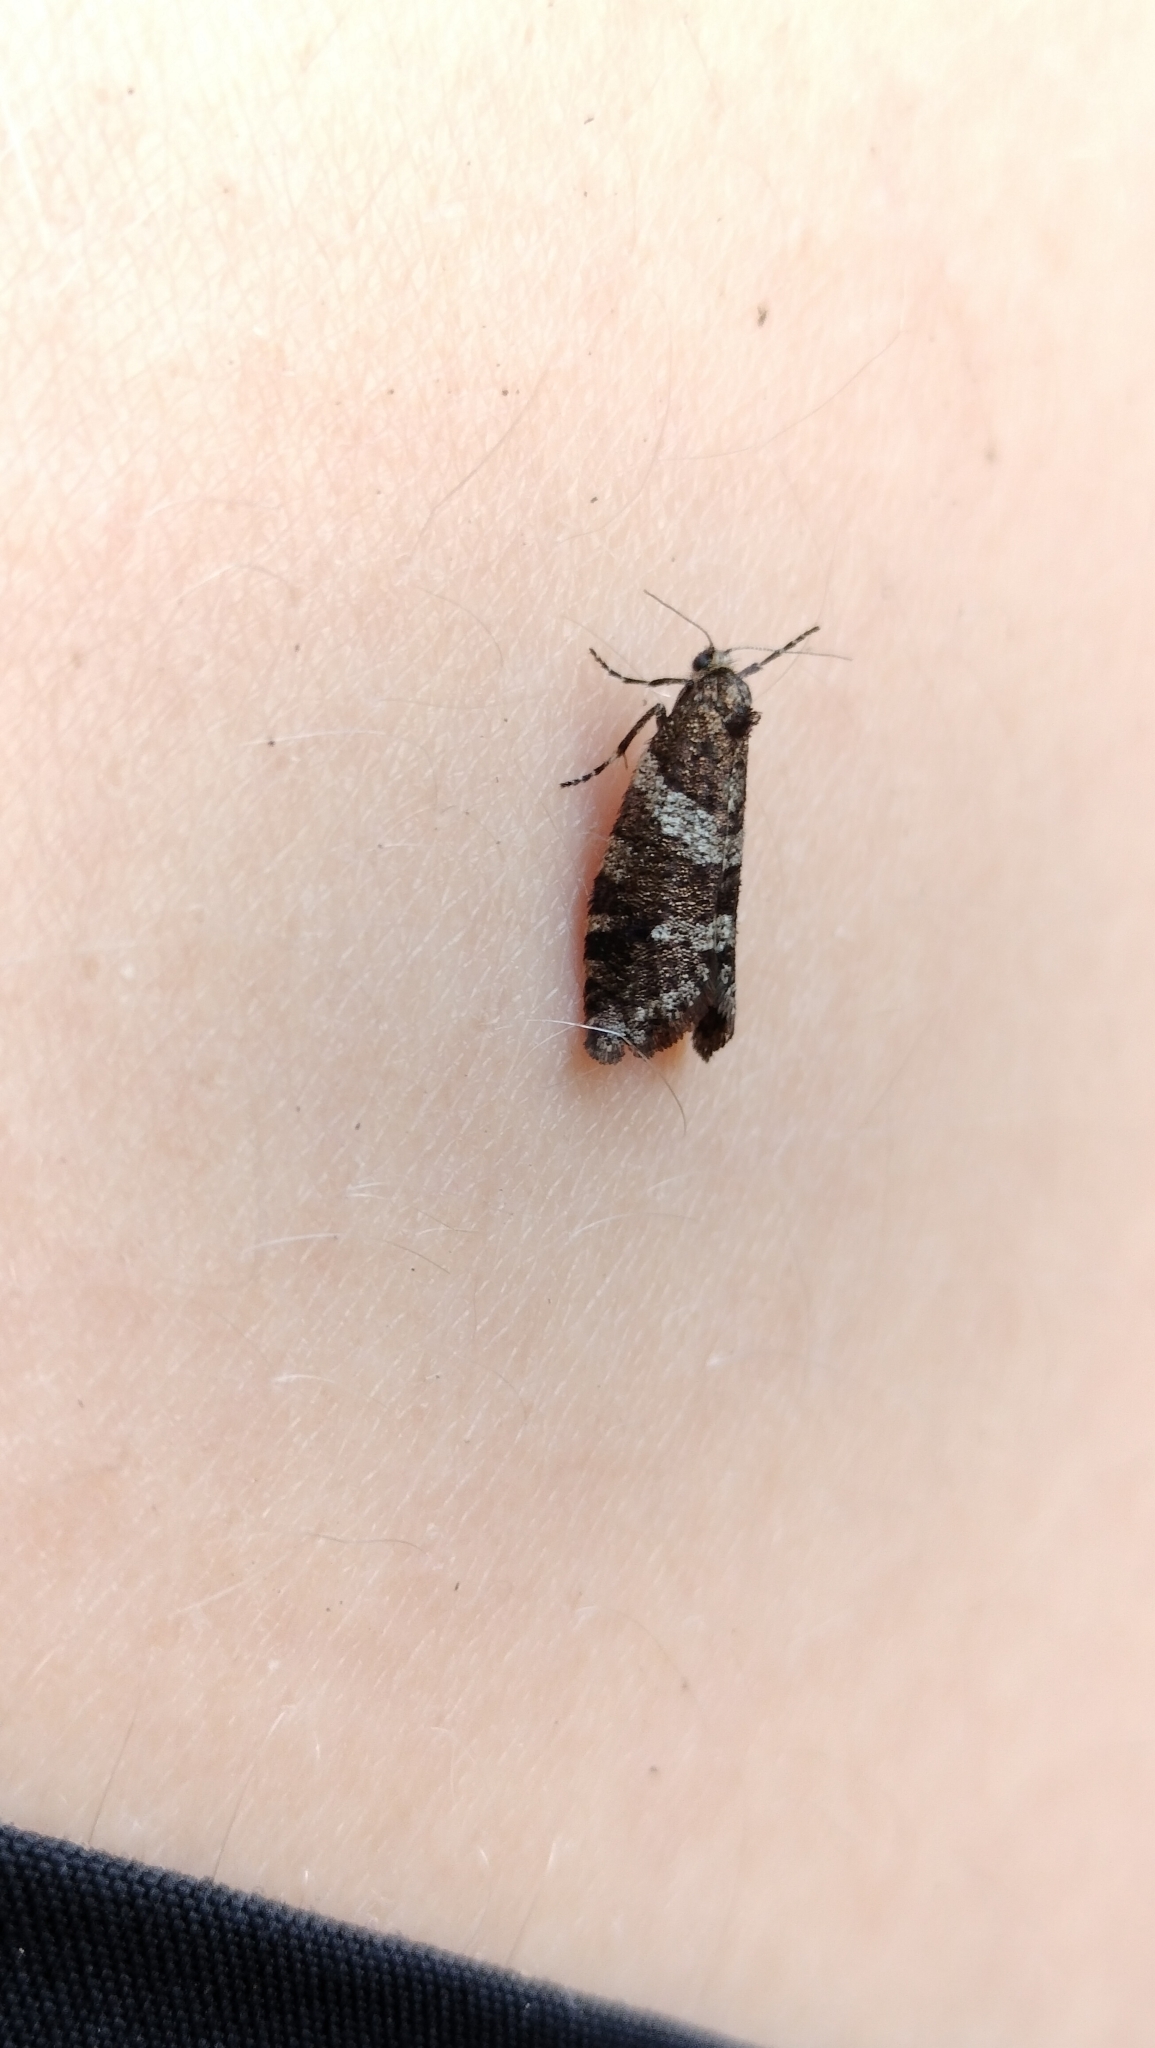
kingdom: Animalia
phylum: Arthropoda
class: Insecta
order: Lepidoptera
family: Psychidae
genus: Lepidoscia
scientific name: Lepidoscia heliochares
